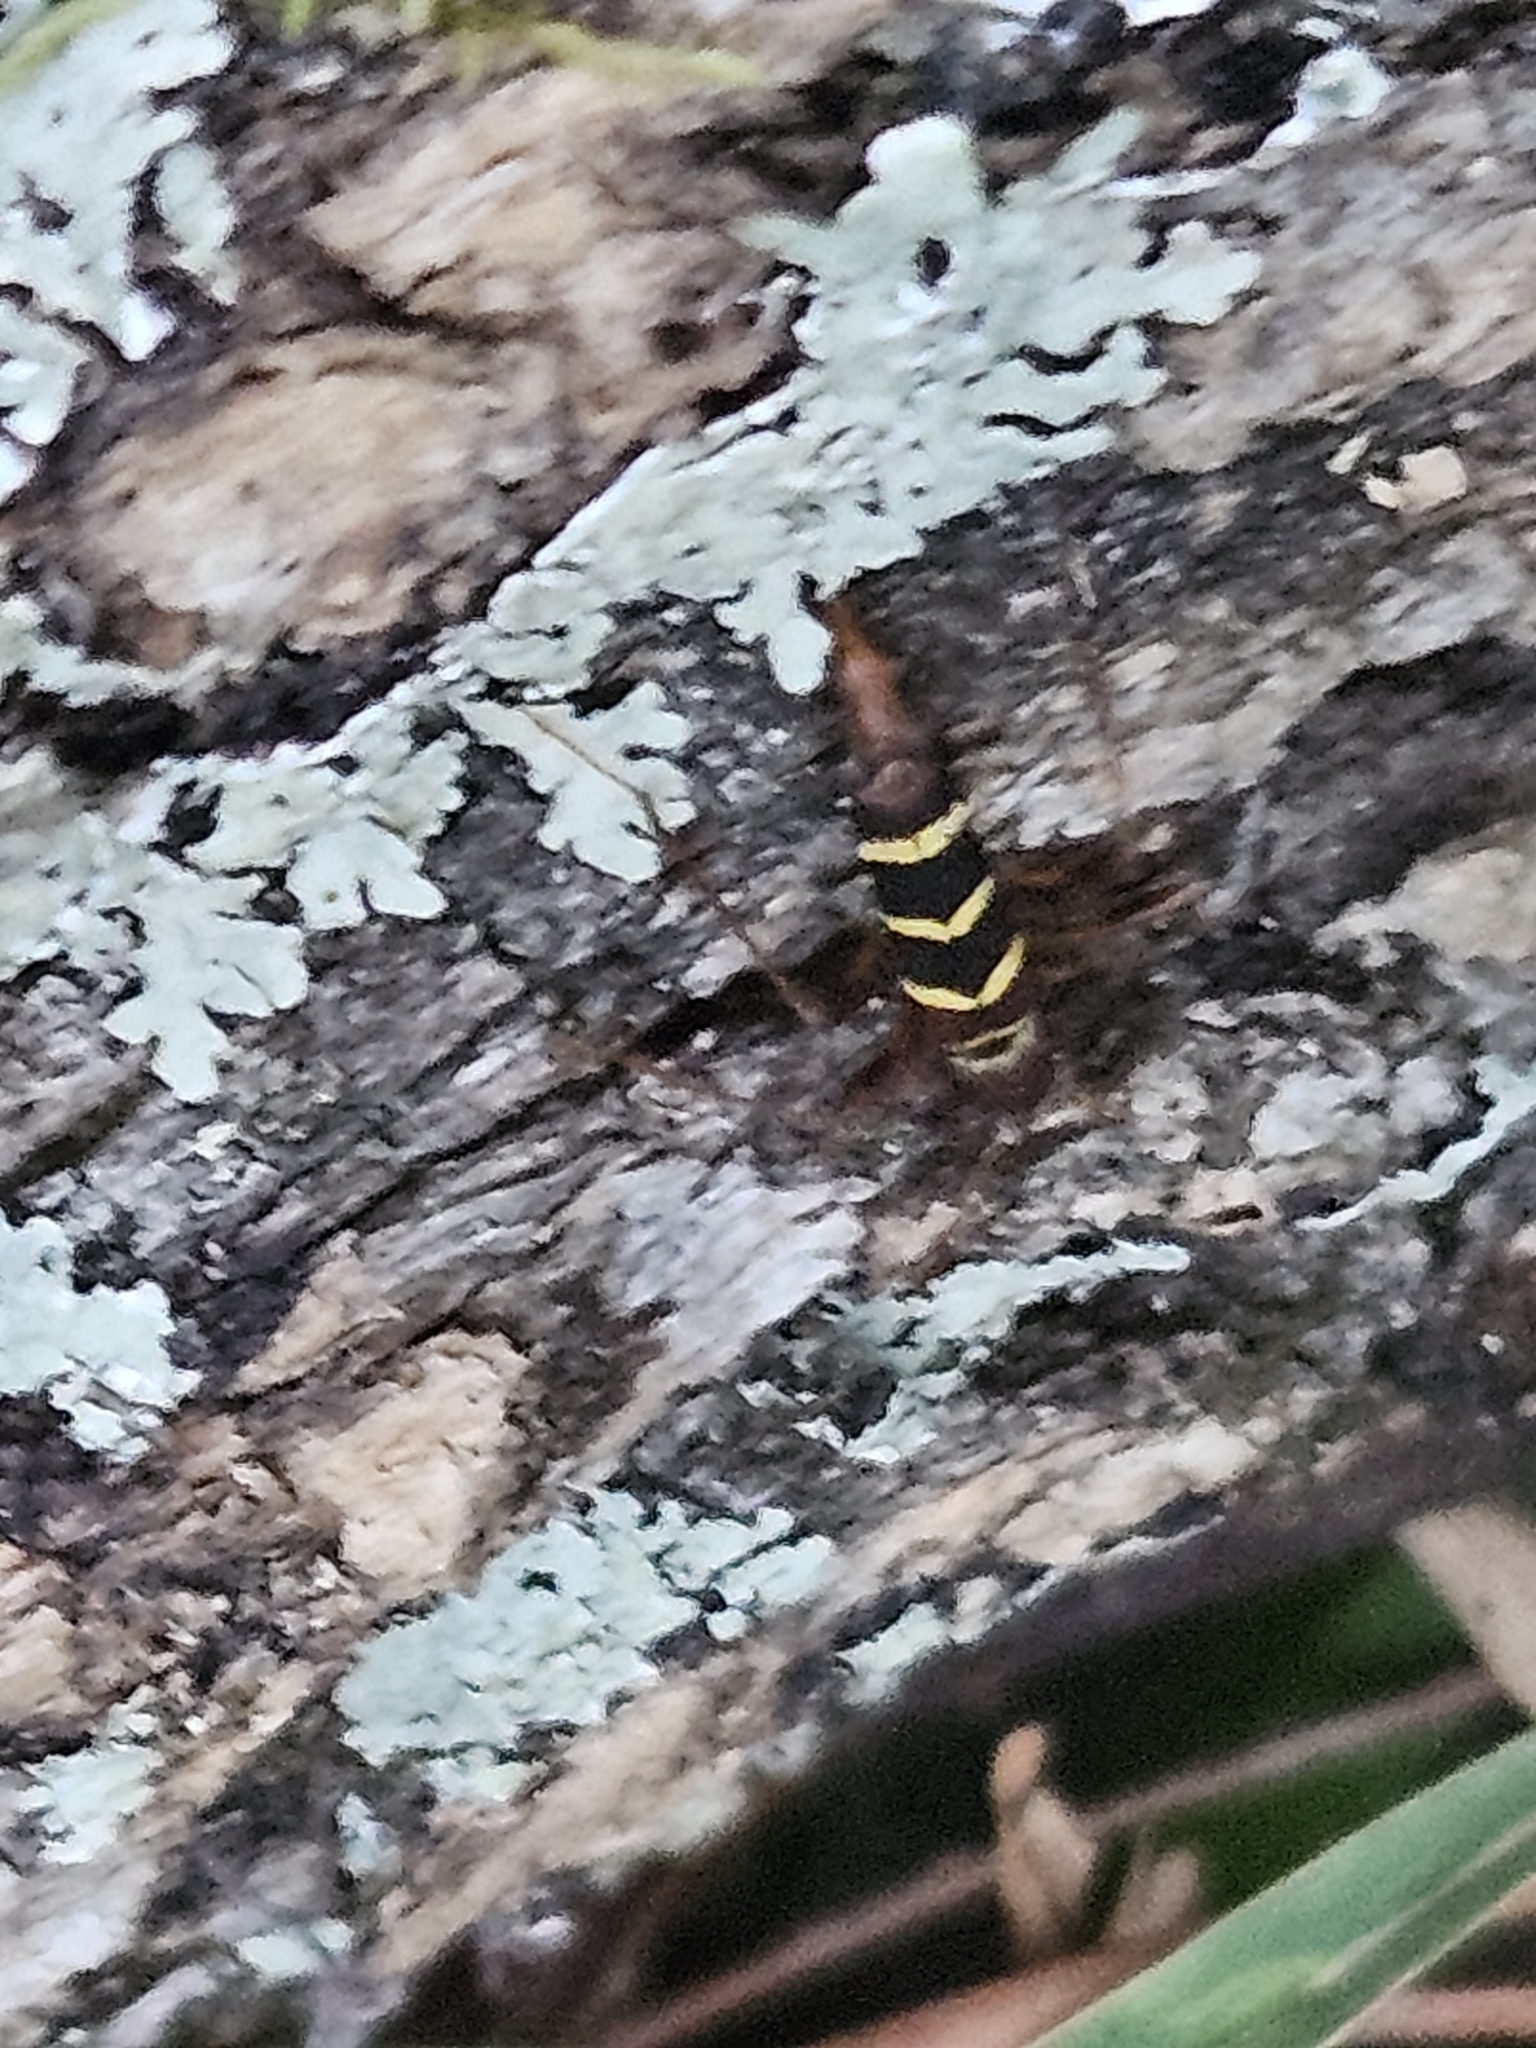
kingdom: Animalia
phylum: Arthropoda
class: Insecta
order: Coleoptera
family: Cerambycidae
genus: Neoclytus
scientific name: Neoclytus acuminatus
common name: Read-headed ash borer
